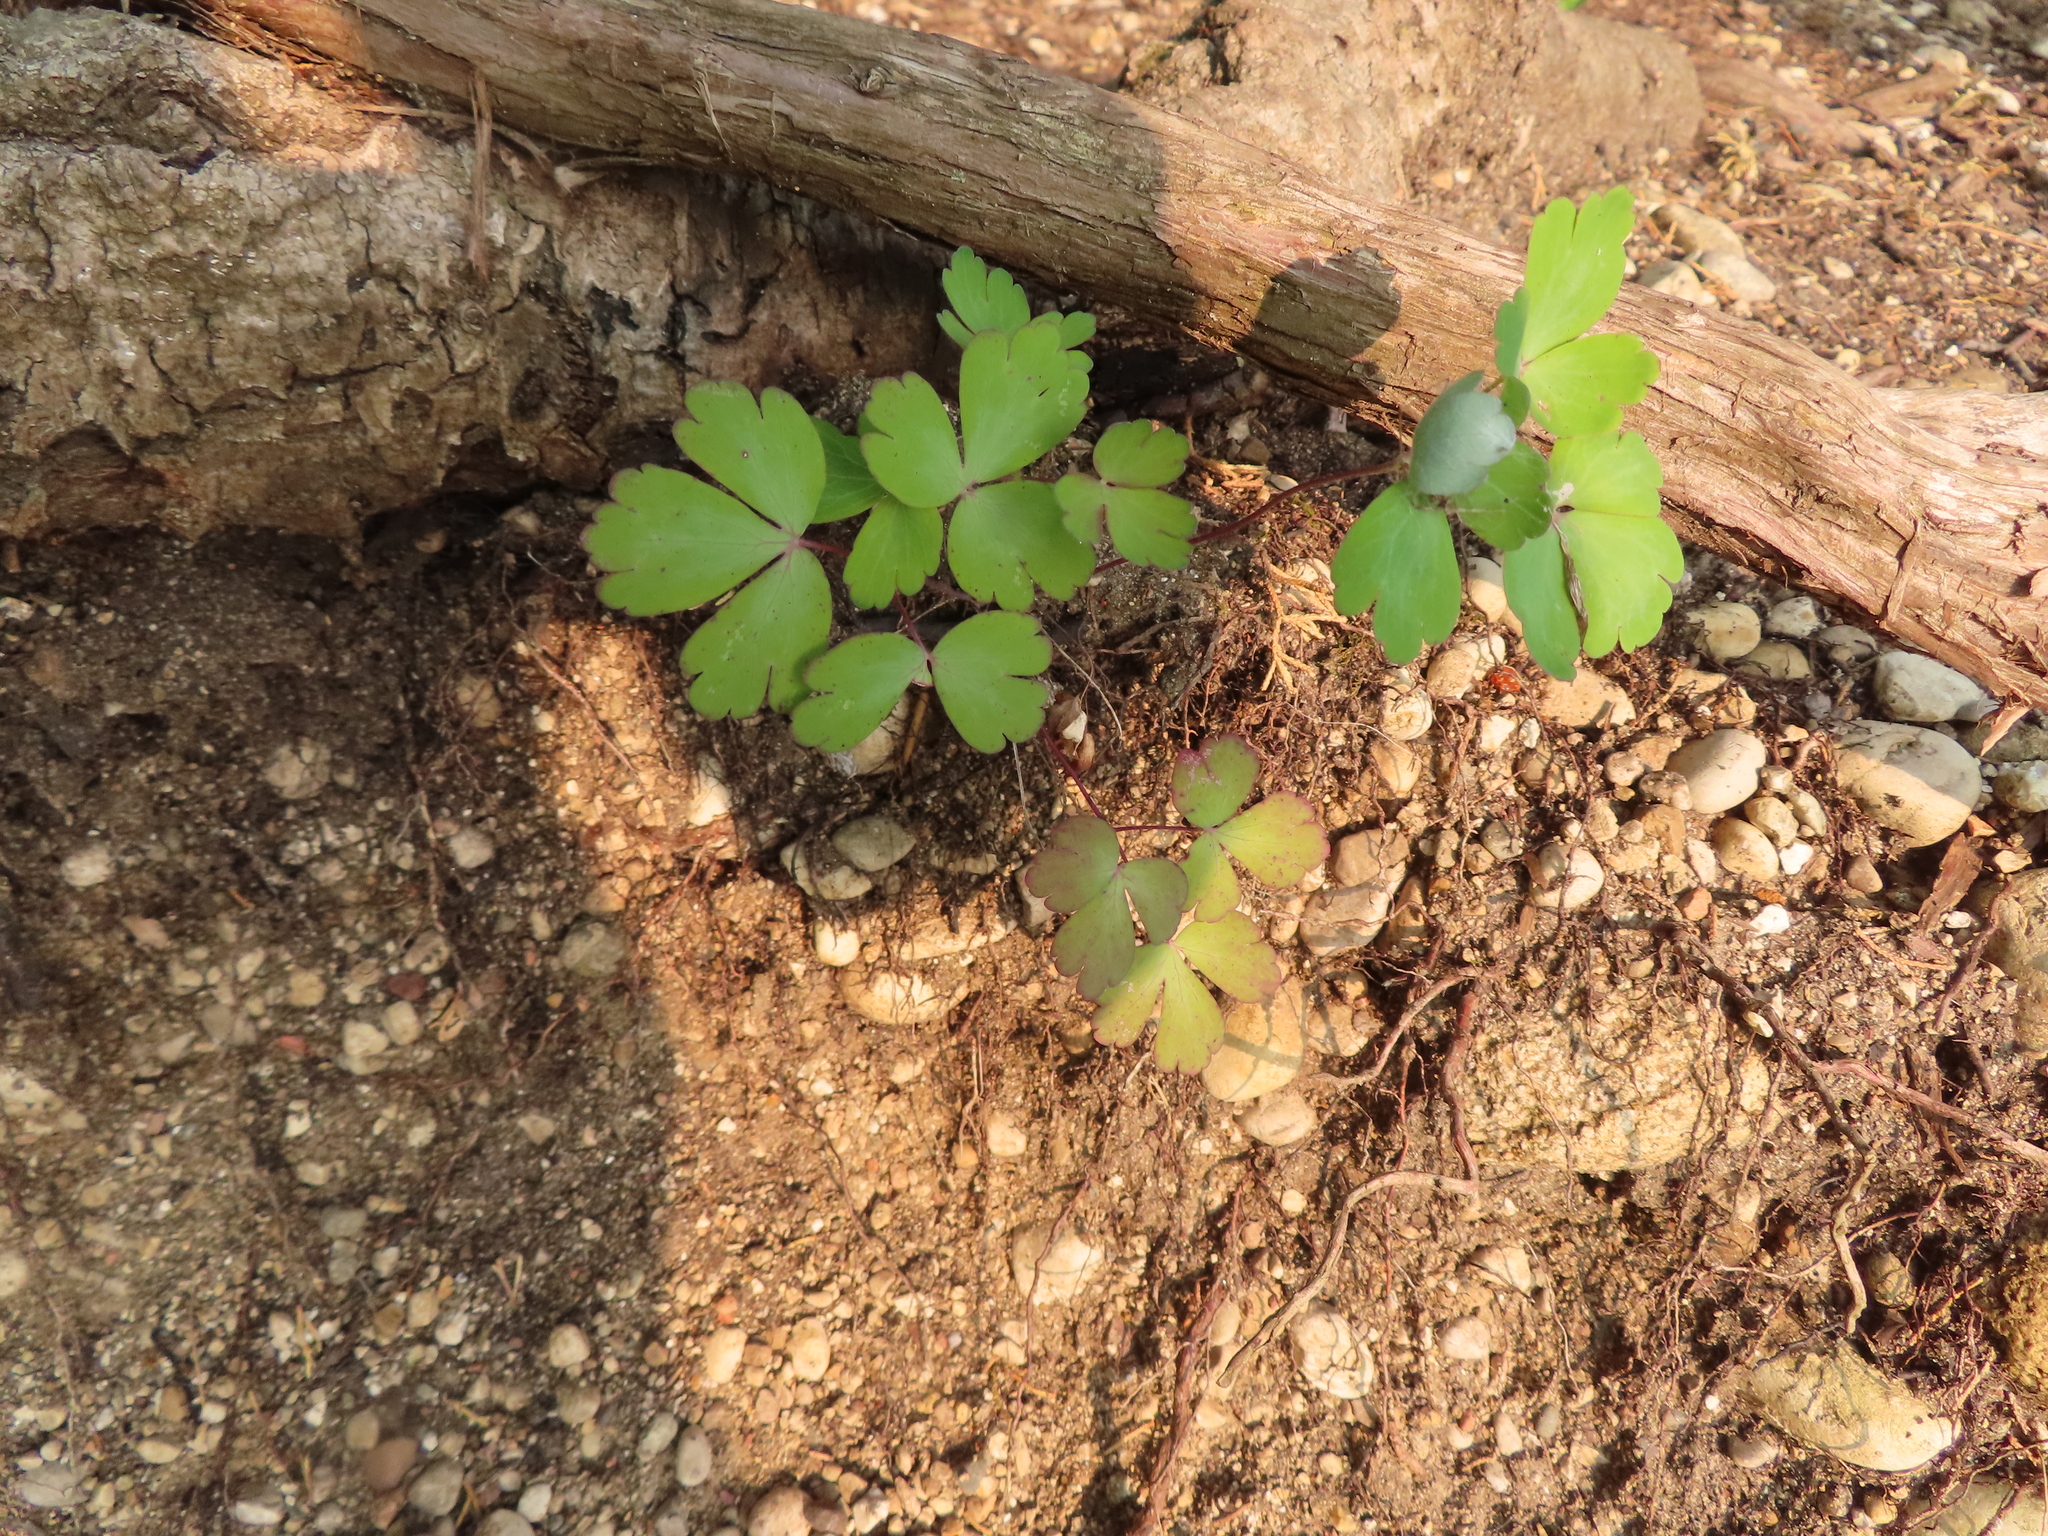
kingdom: Plantae
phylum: Tracheophyta
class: Magnoliopsida
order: Ranunculales
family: Ranunculaceae
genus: Aquilegia
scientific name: Aquilegia canadensis
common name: American columbine
